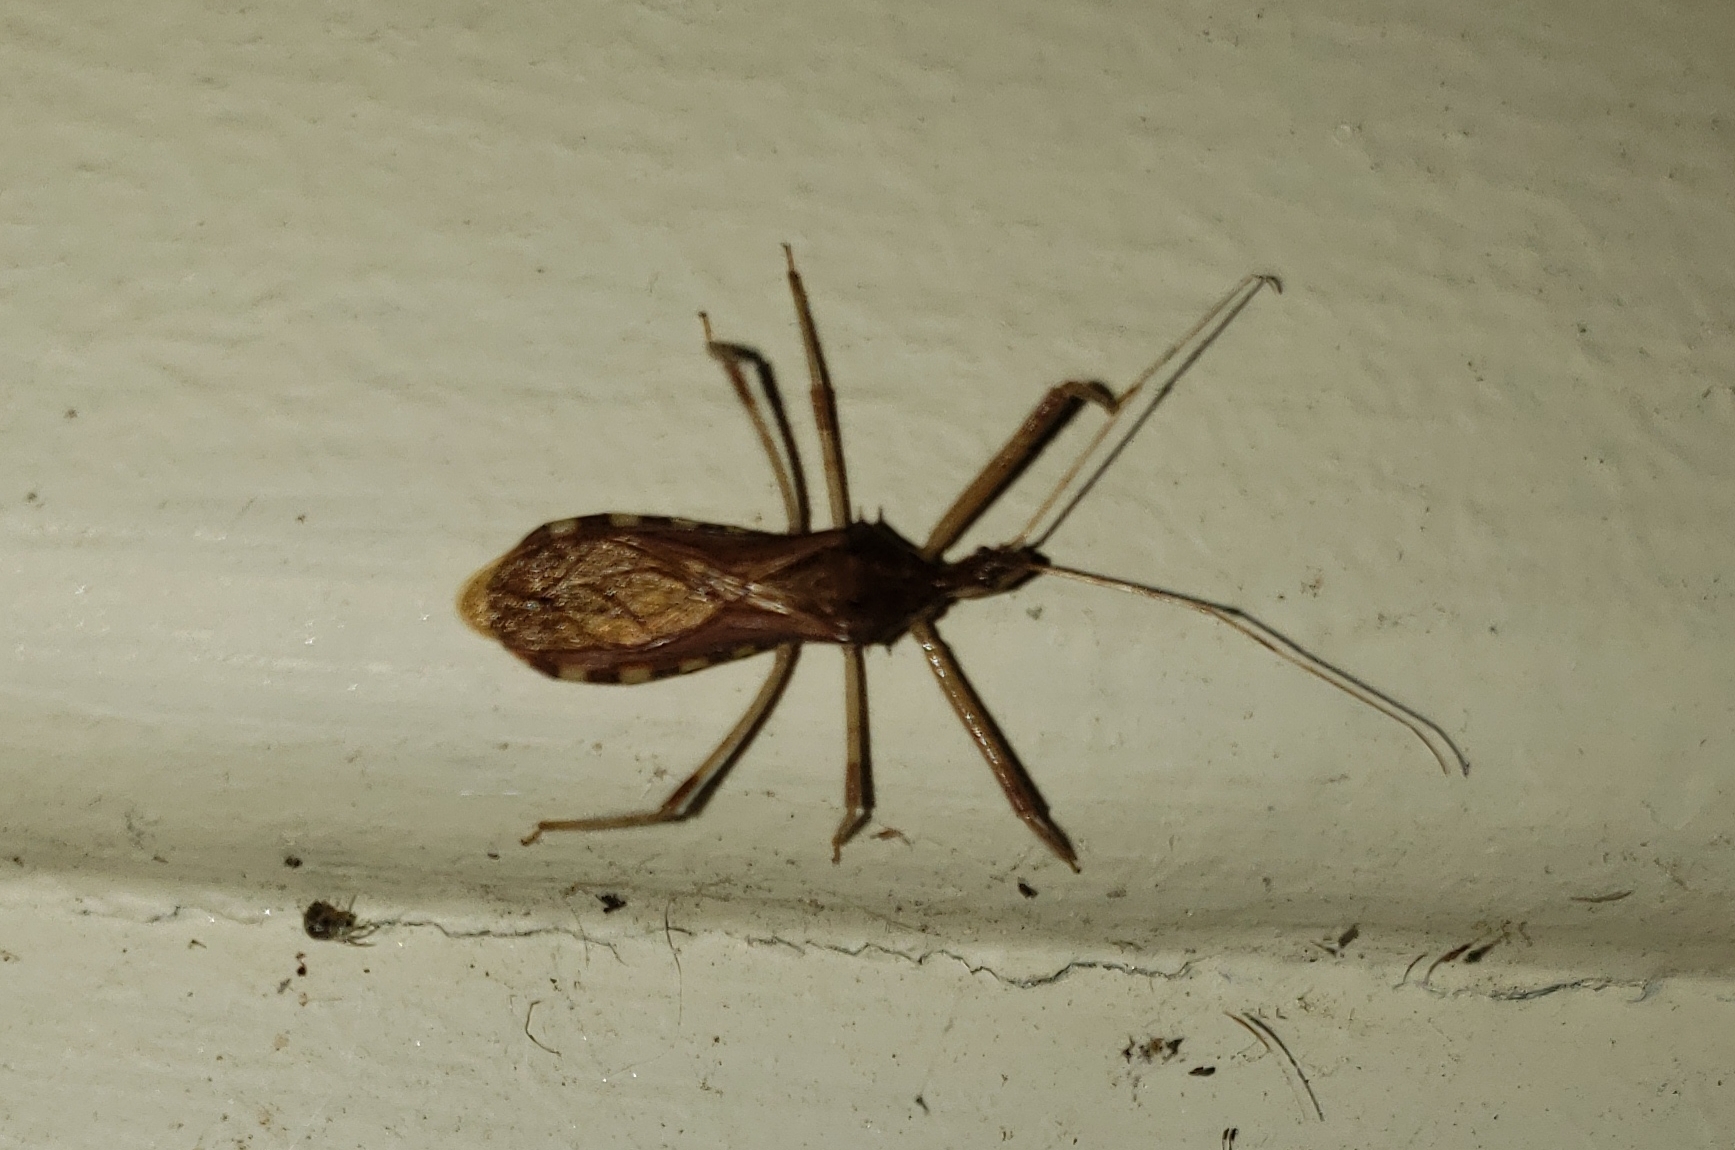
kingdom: Animalia
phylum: Arthropoda
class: Insecta
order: Hemiptera
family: Reduviidae
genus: Rocconota
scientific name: Rocconota annulicornis
